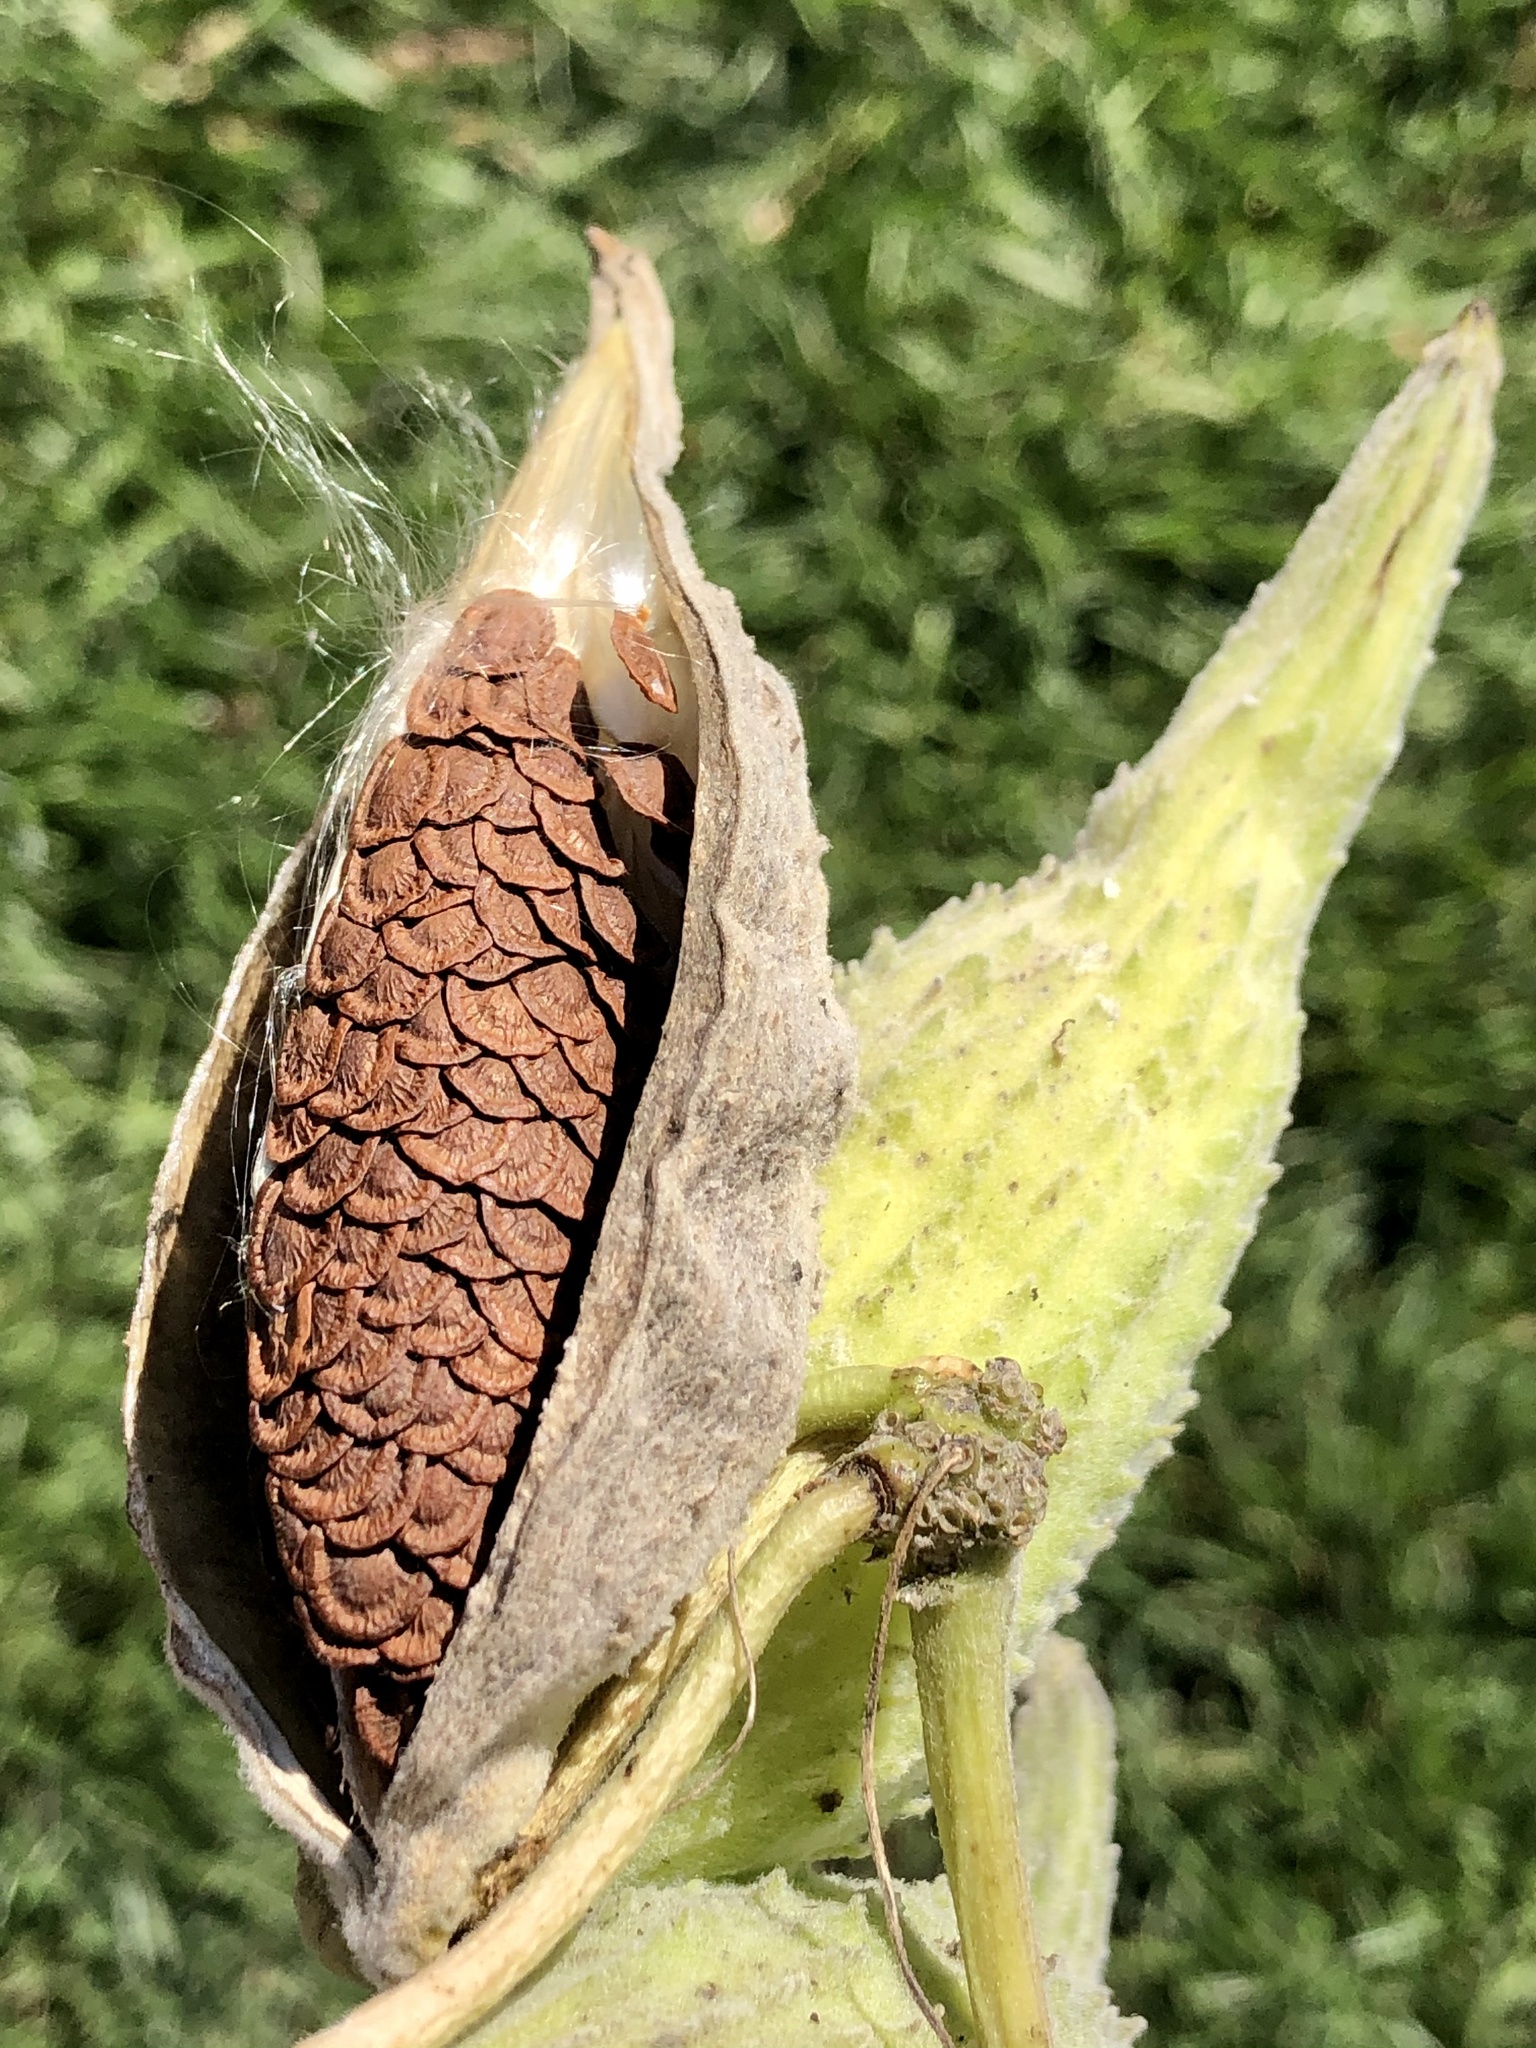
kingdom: Plantae
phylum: Tracheophyta
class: Magnoliopsida
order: Gentianales
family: Apocynaceae
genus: Asclepias
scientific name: Asclepias syriaca
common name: Common milkweed
